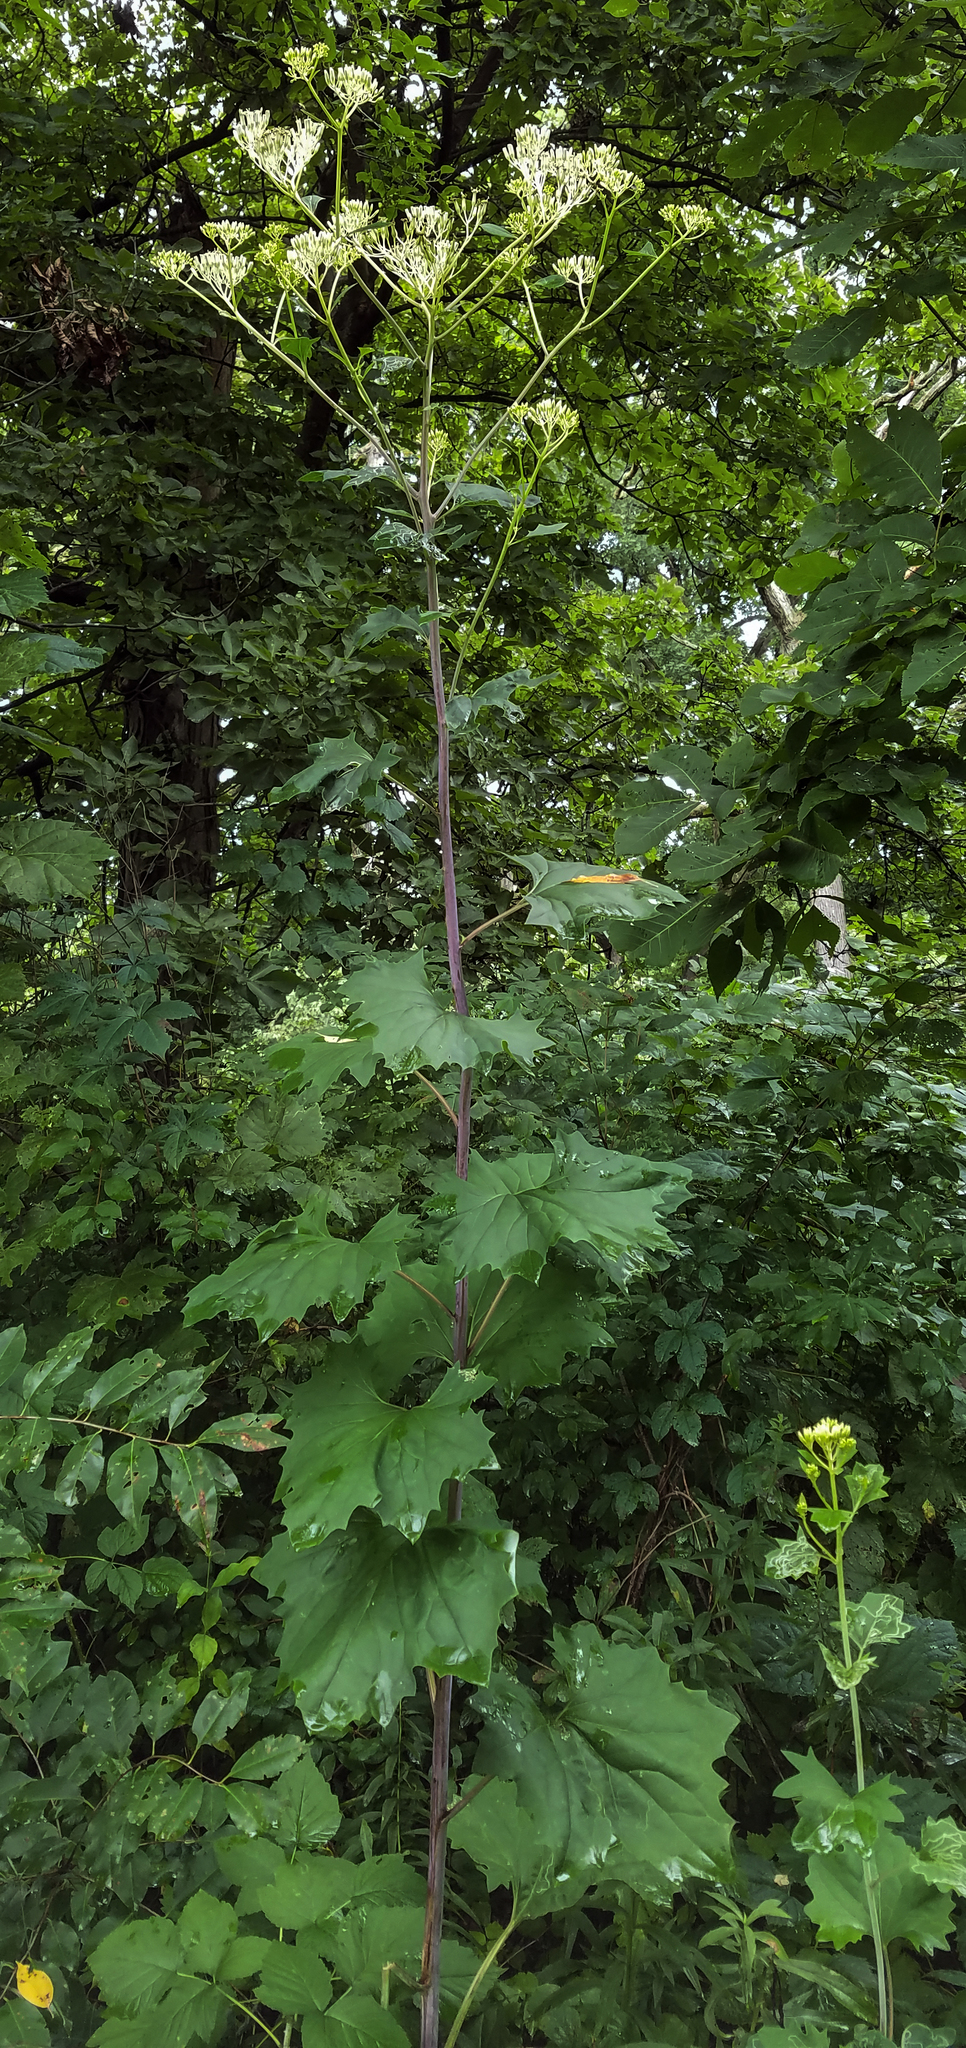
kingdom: Plantae
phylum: Tracheophyta
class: Magnoliopsida
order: Asterales
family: Asteraceae
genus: Arnoglossum
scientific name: Arnoglossum reniforme
